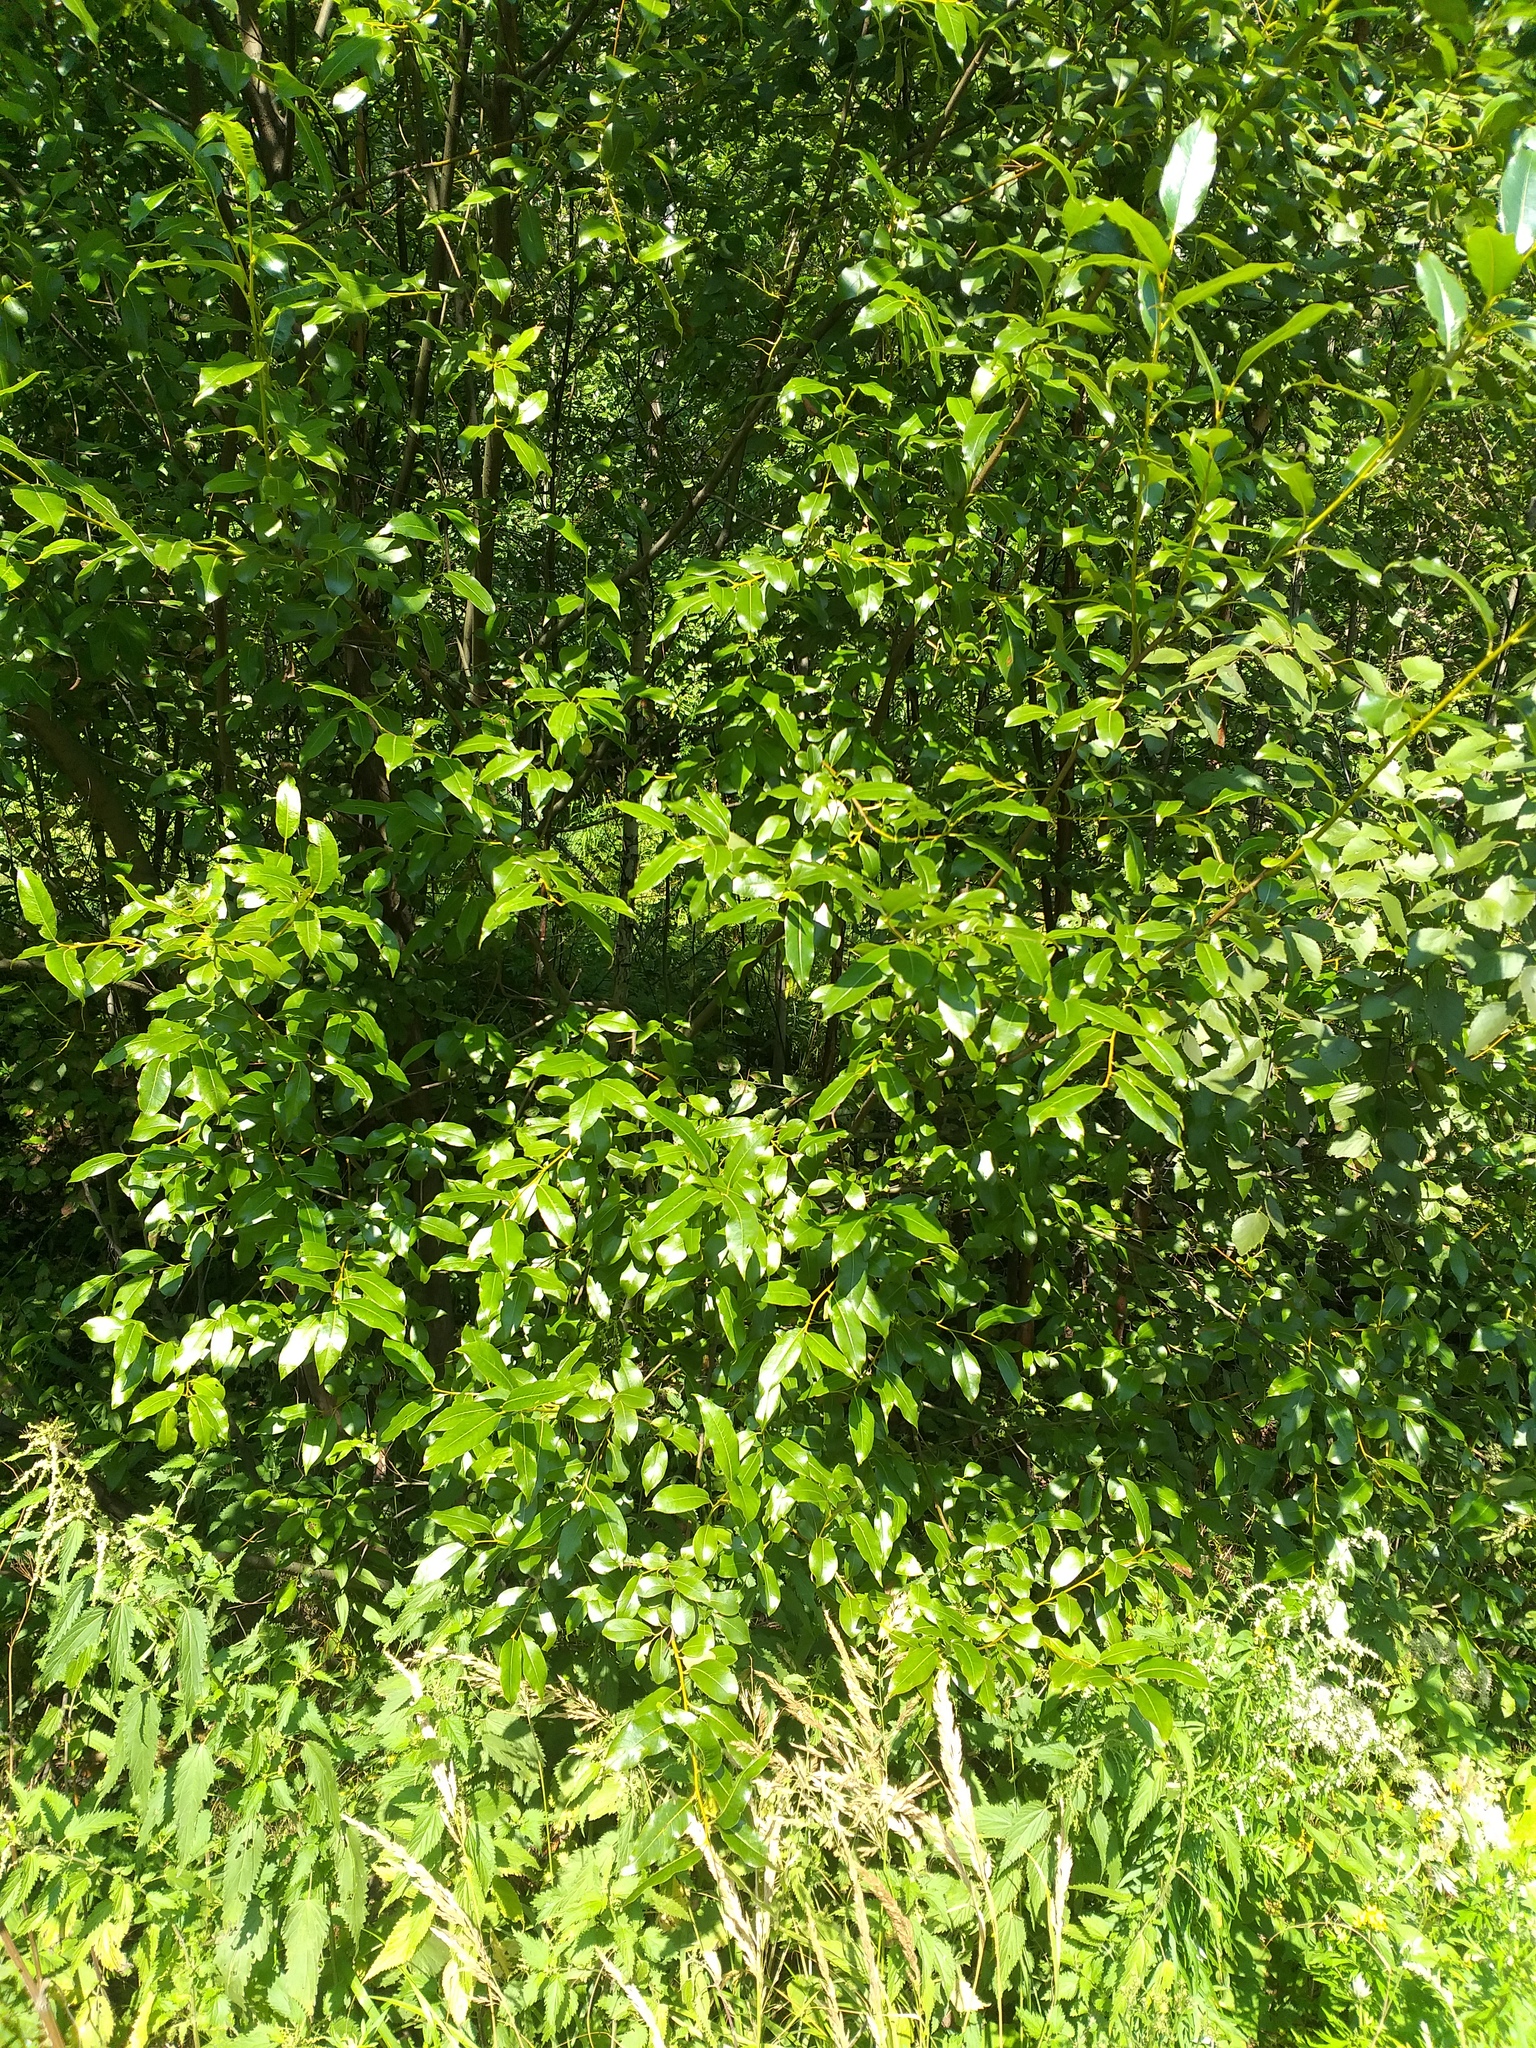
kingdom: Plantae
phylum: Tracheophyta
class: Magnoliopsida
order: Malpighiales
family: Salicaceae
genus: Salix
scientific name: Salix pentandra
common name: Bay willow
